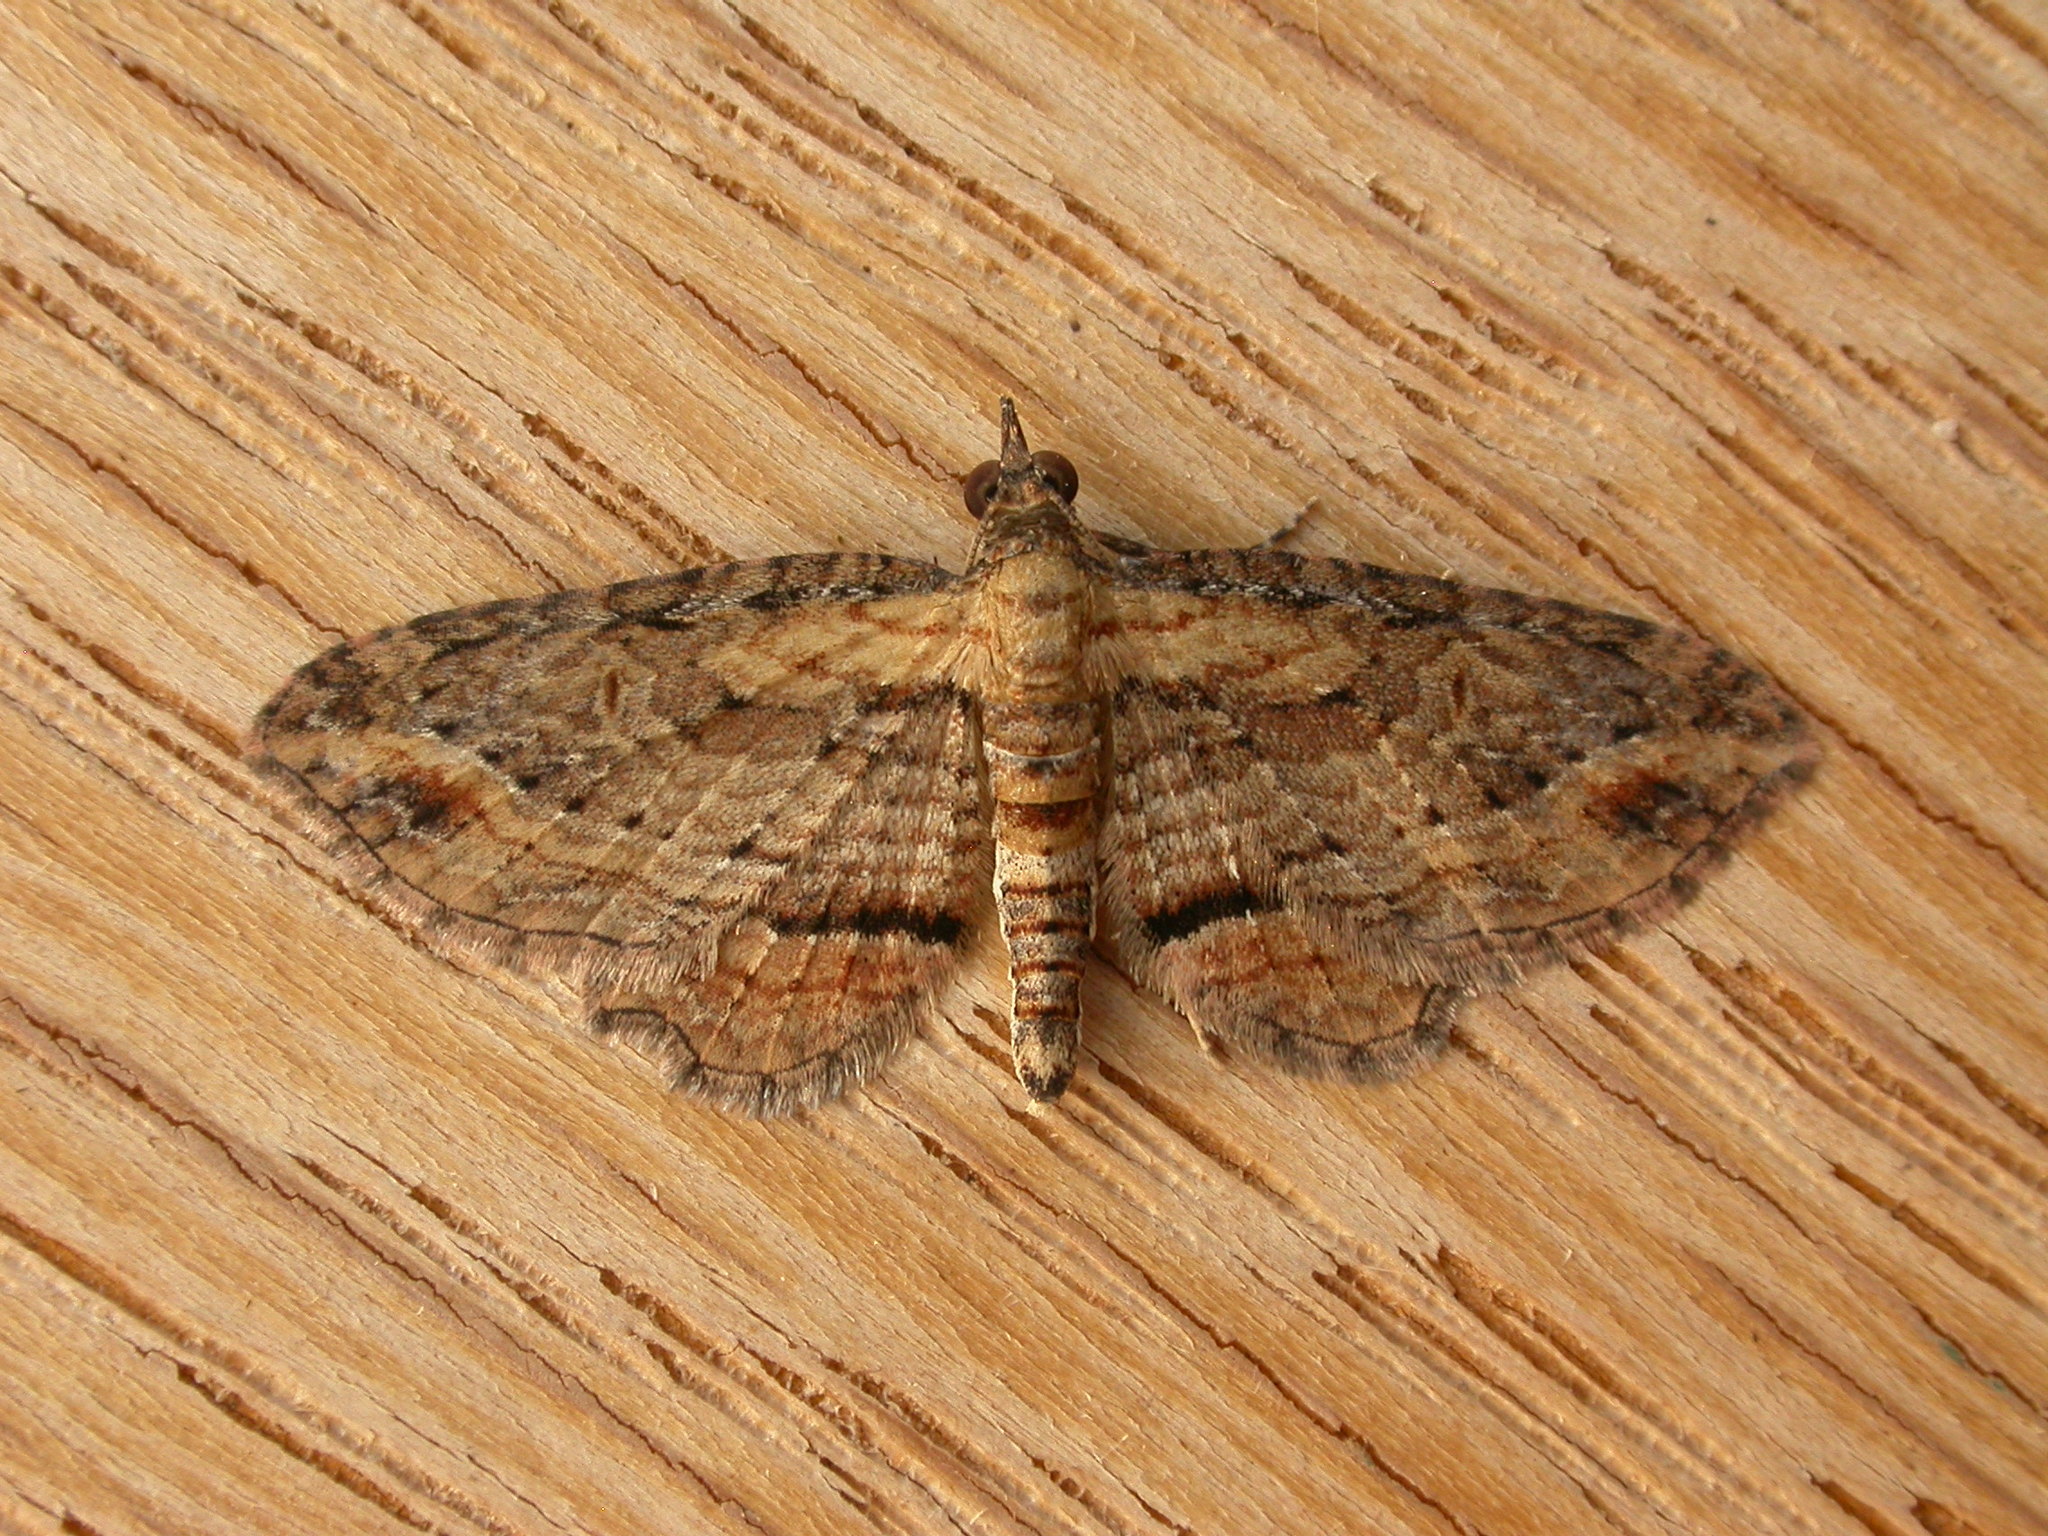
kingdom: Animalia
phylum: Arthropoda
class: Insecta
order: Lepidoptera
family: Geometridae
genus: Chloroclystis
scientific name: Chloroclystis filata
